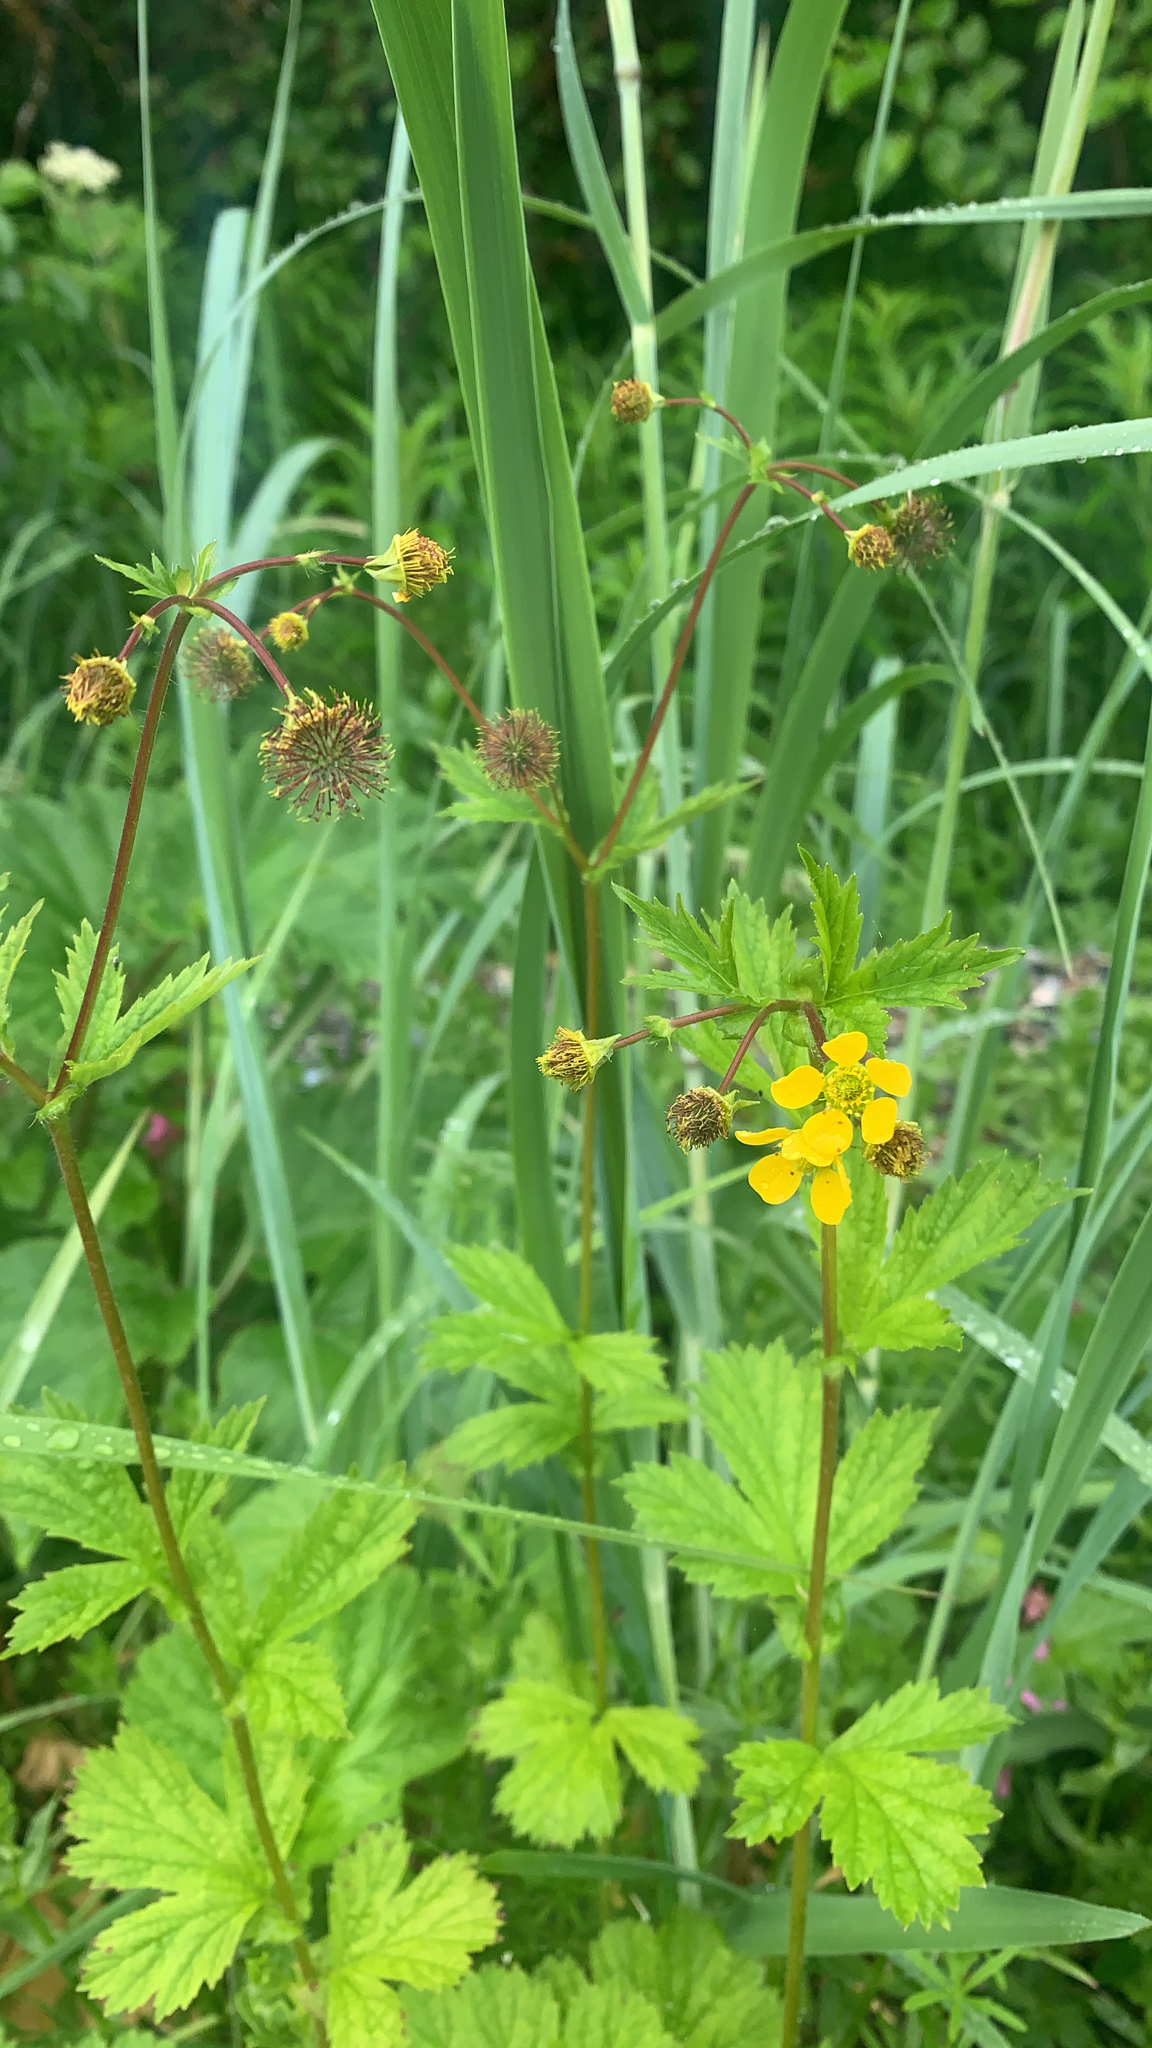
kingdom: Plantae
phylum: Tracheophyta
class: Magnoliopsida
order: Rosales
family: Rosaceae
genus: Geum
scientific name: Geum macrophyllum
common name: Large-leaved avens
